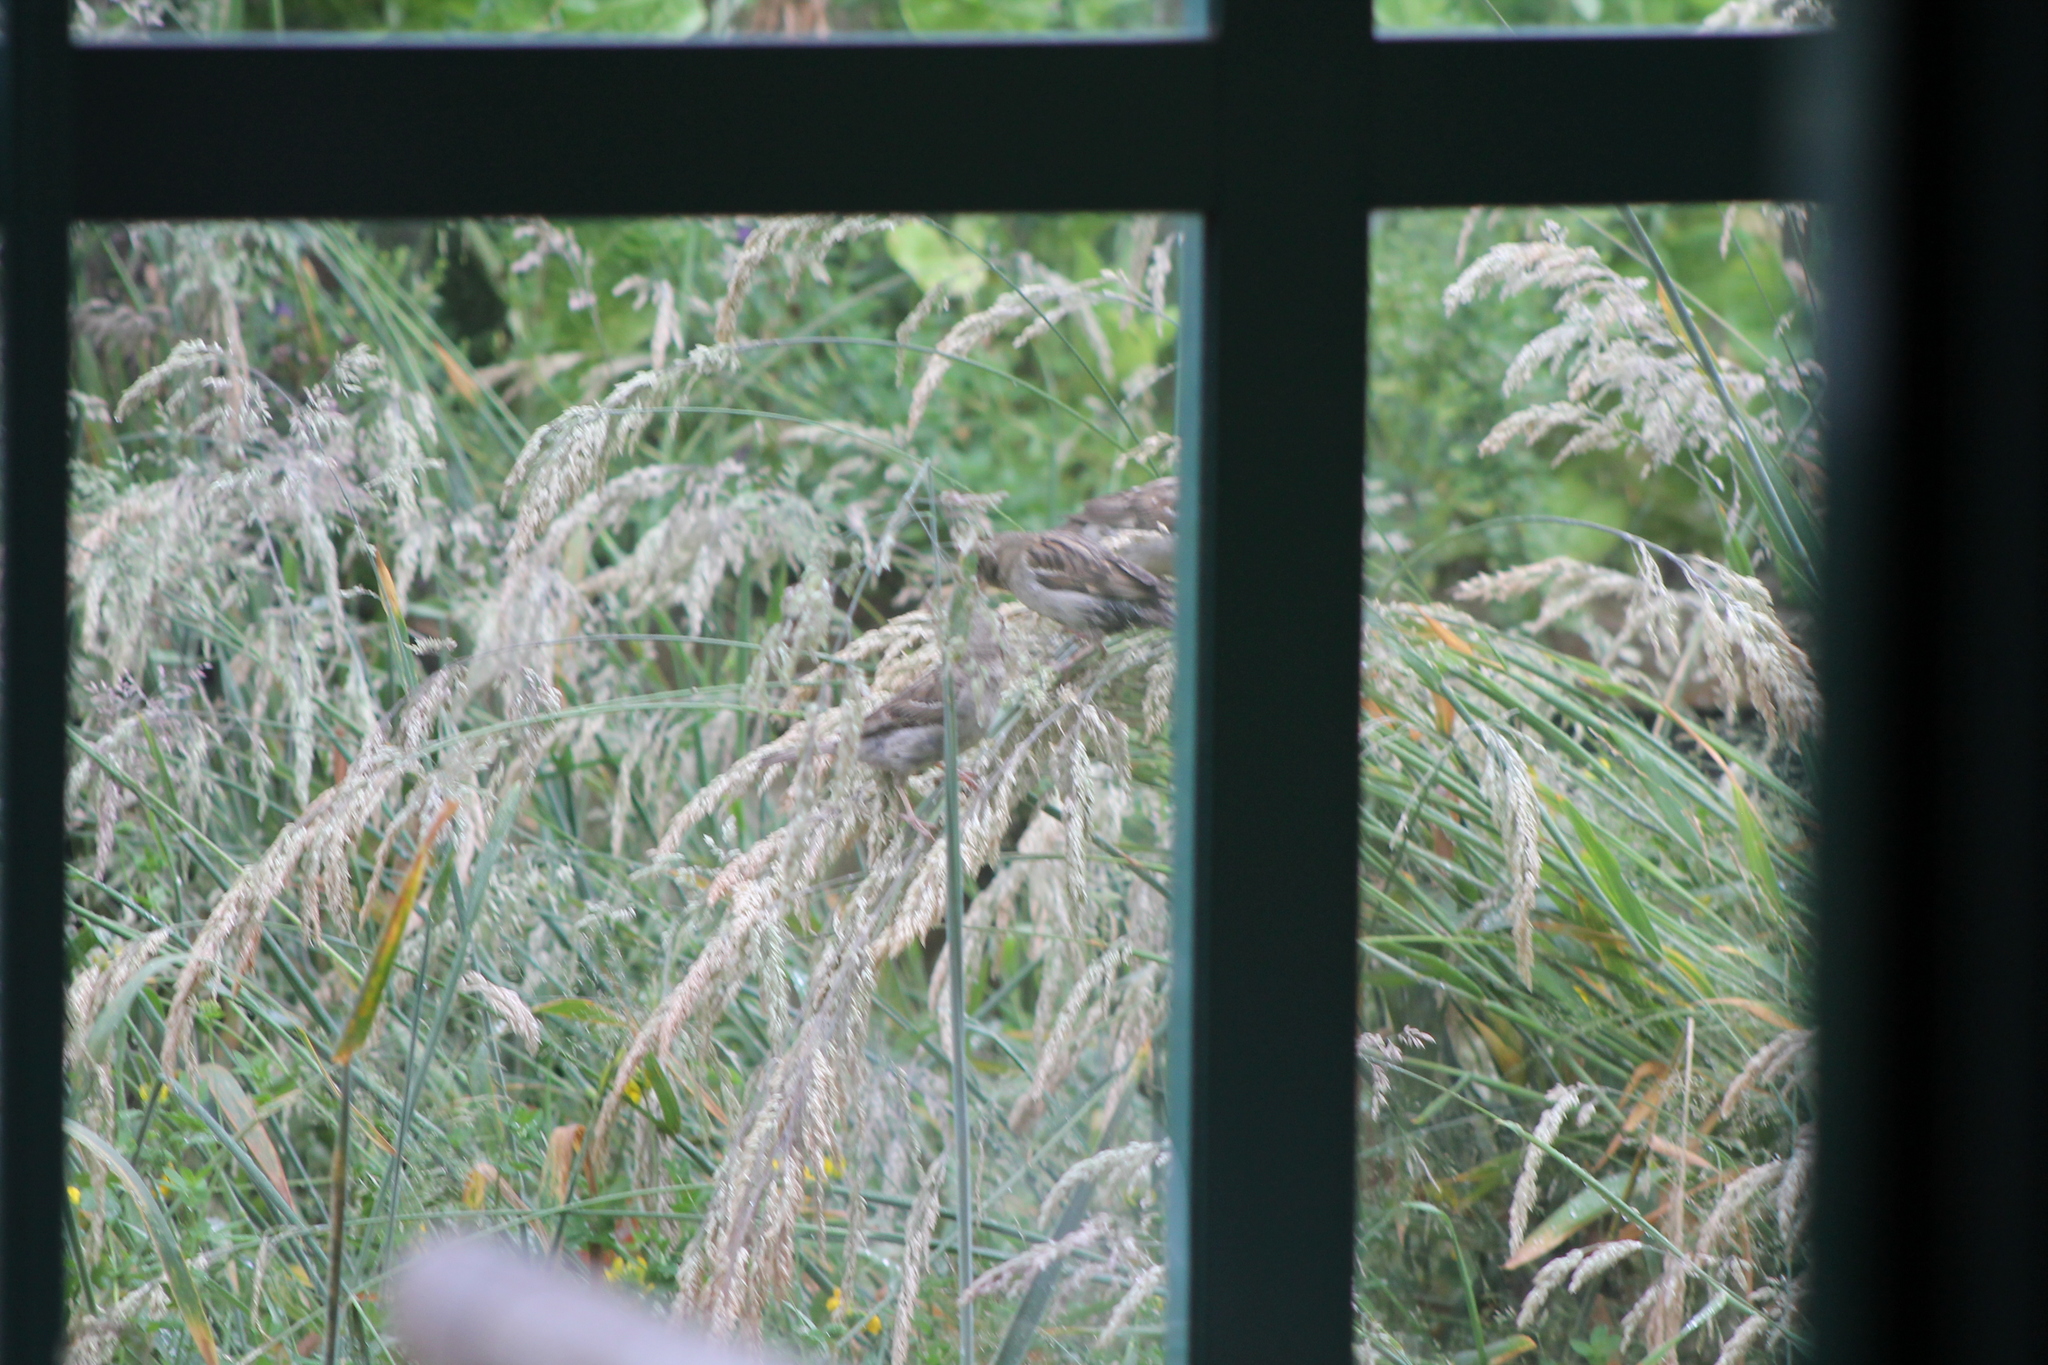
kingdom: Animalia
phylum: Chordata
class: Aves
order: Passeriformes
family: Passeridae
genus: Passer
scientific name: Passer domesticus
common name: House sparrow
